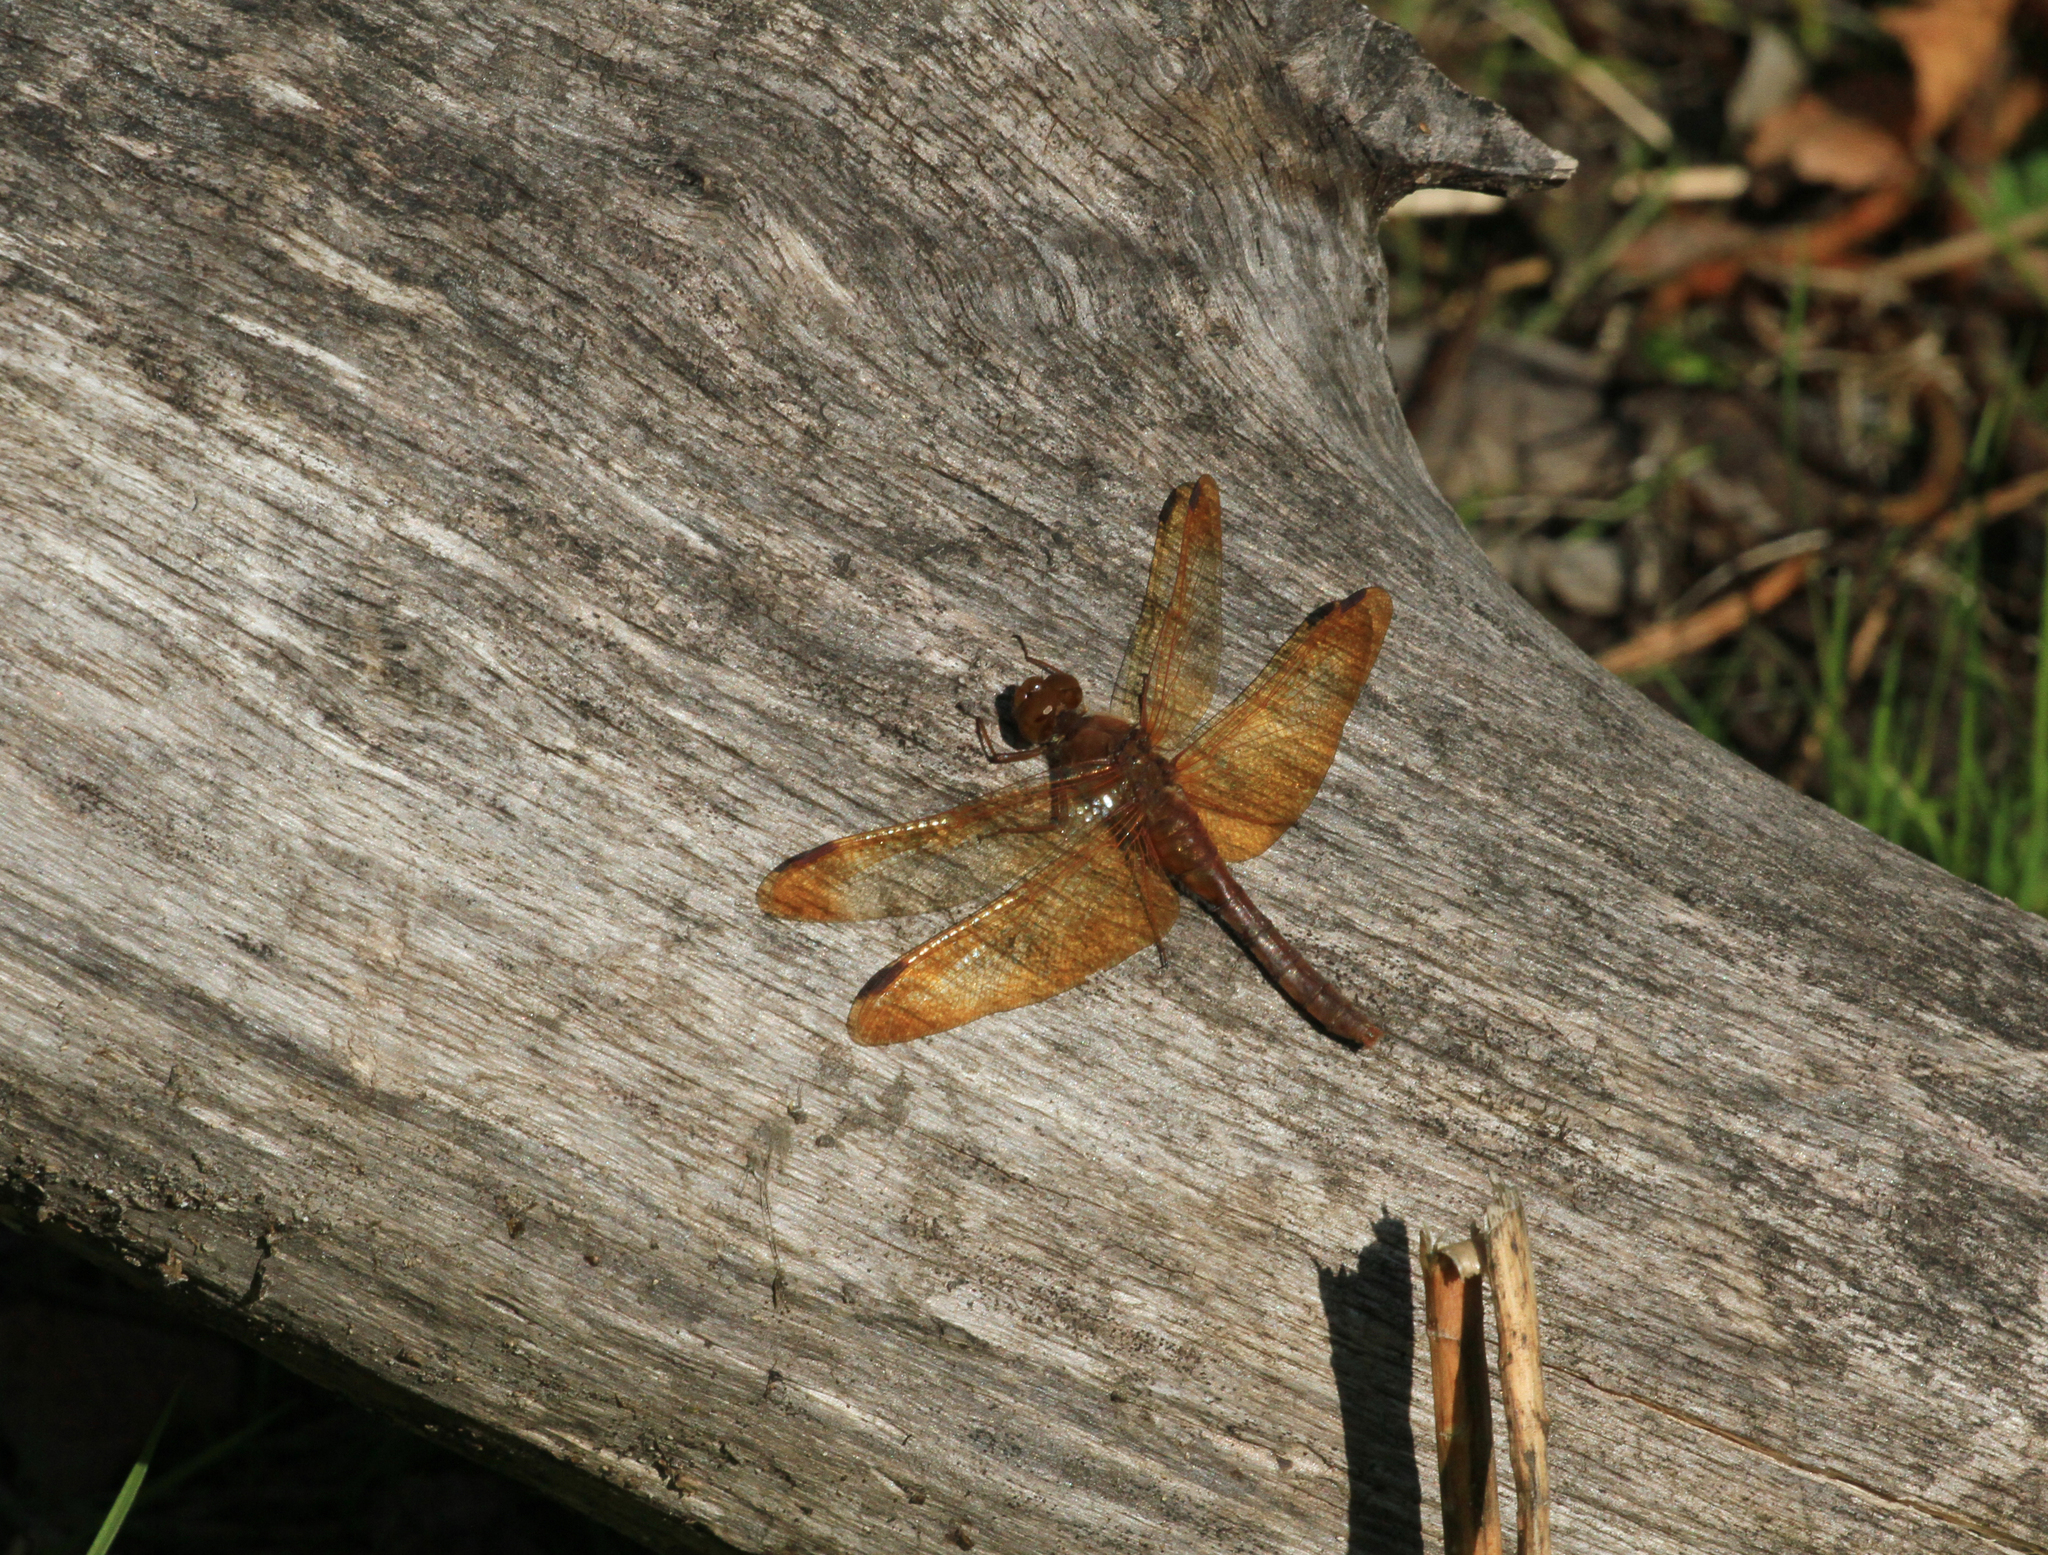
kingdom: Animalia
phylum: Arthropoda
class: Insecta
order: Odonata
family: Libellulidae
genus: Sympetrum
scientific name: Sympetrum croceolum
